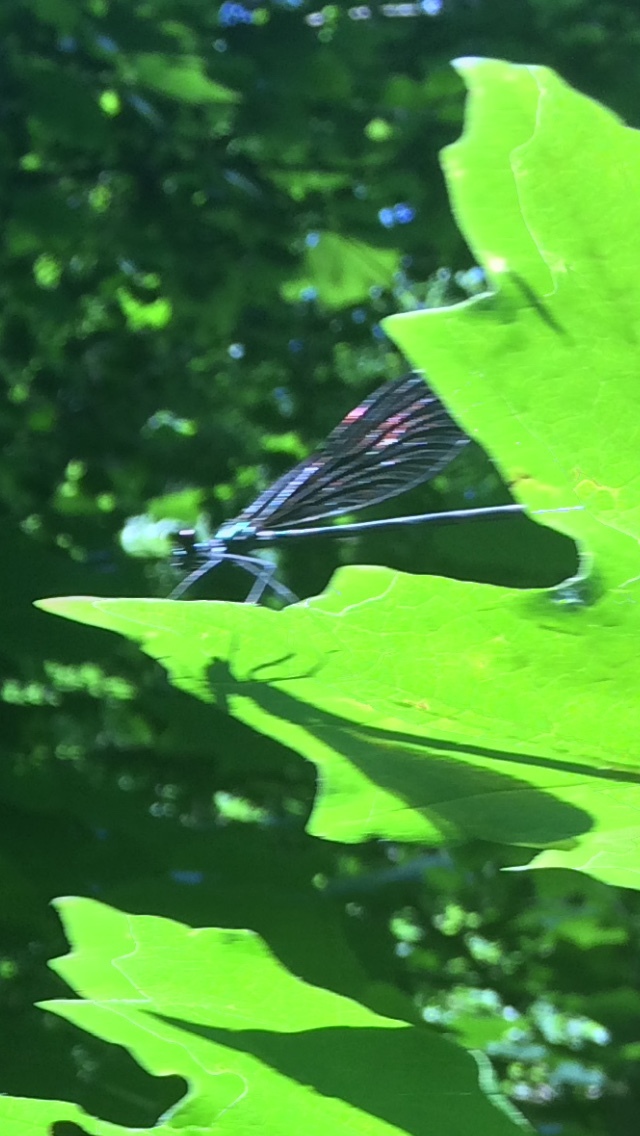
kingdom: Animalia
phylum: Arthropoda
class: Insecta
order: Odonata
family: Calopterygidae
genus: Calopteryx
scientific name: Calopteryx maculata
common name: Ebony jewelwing
